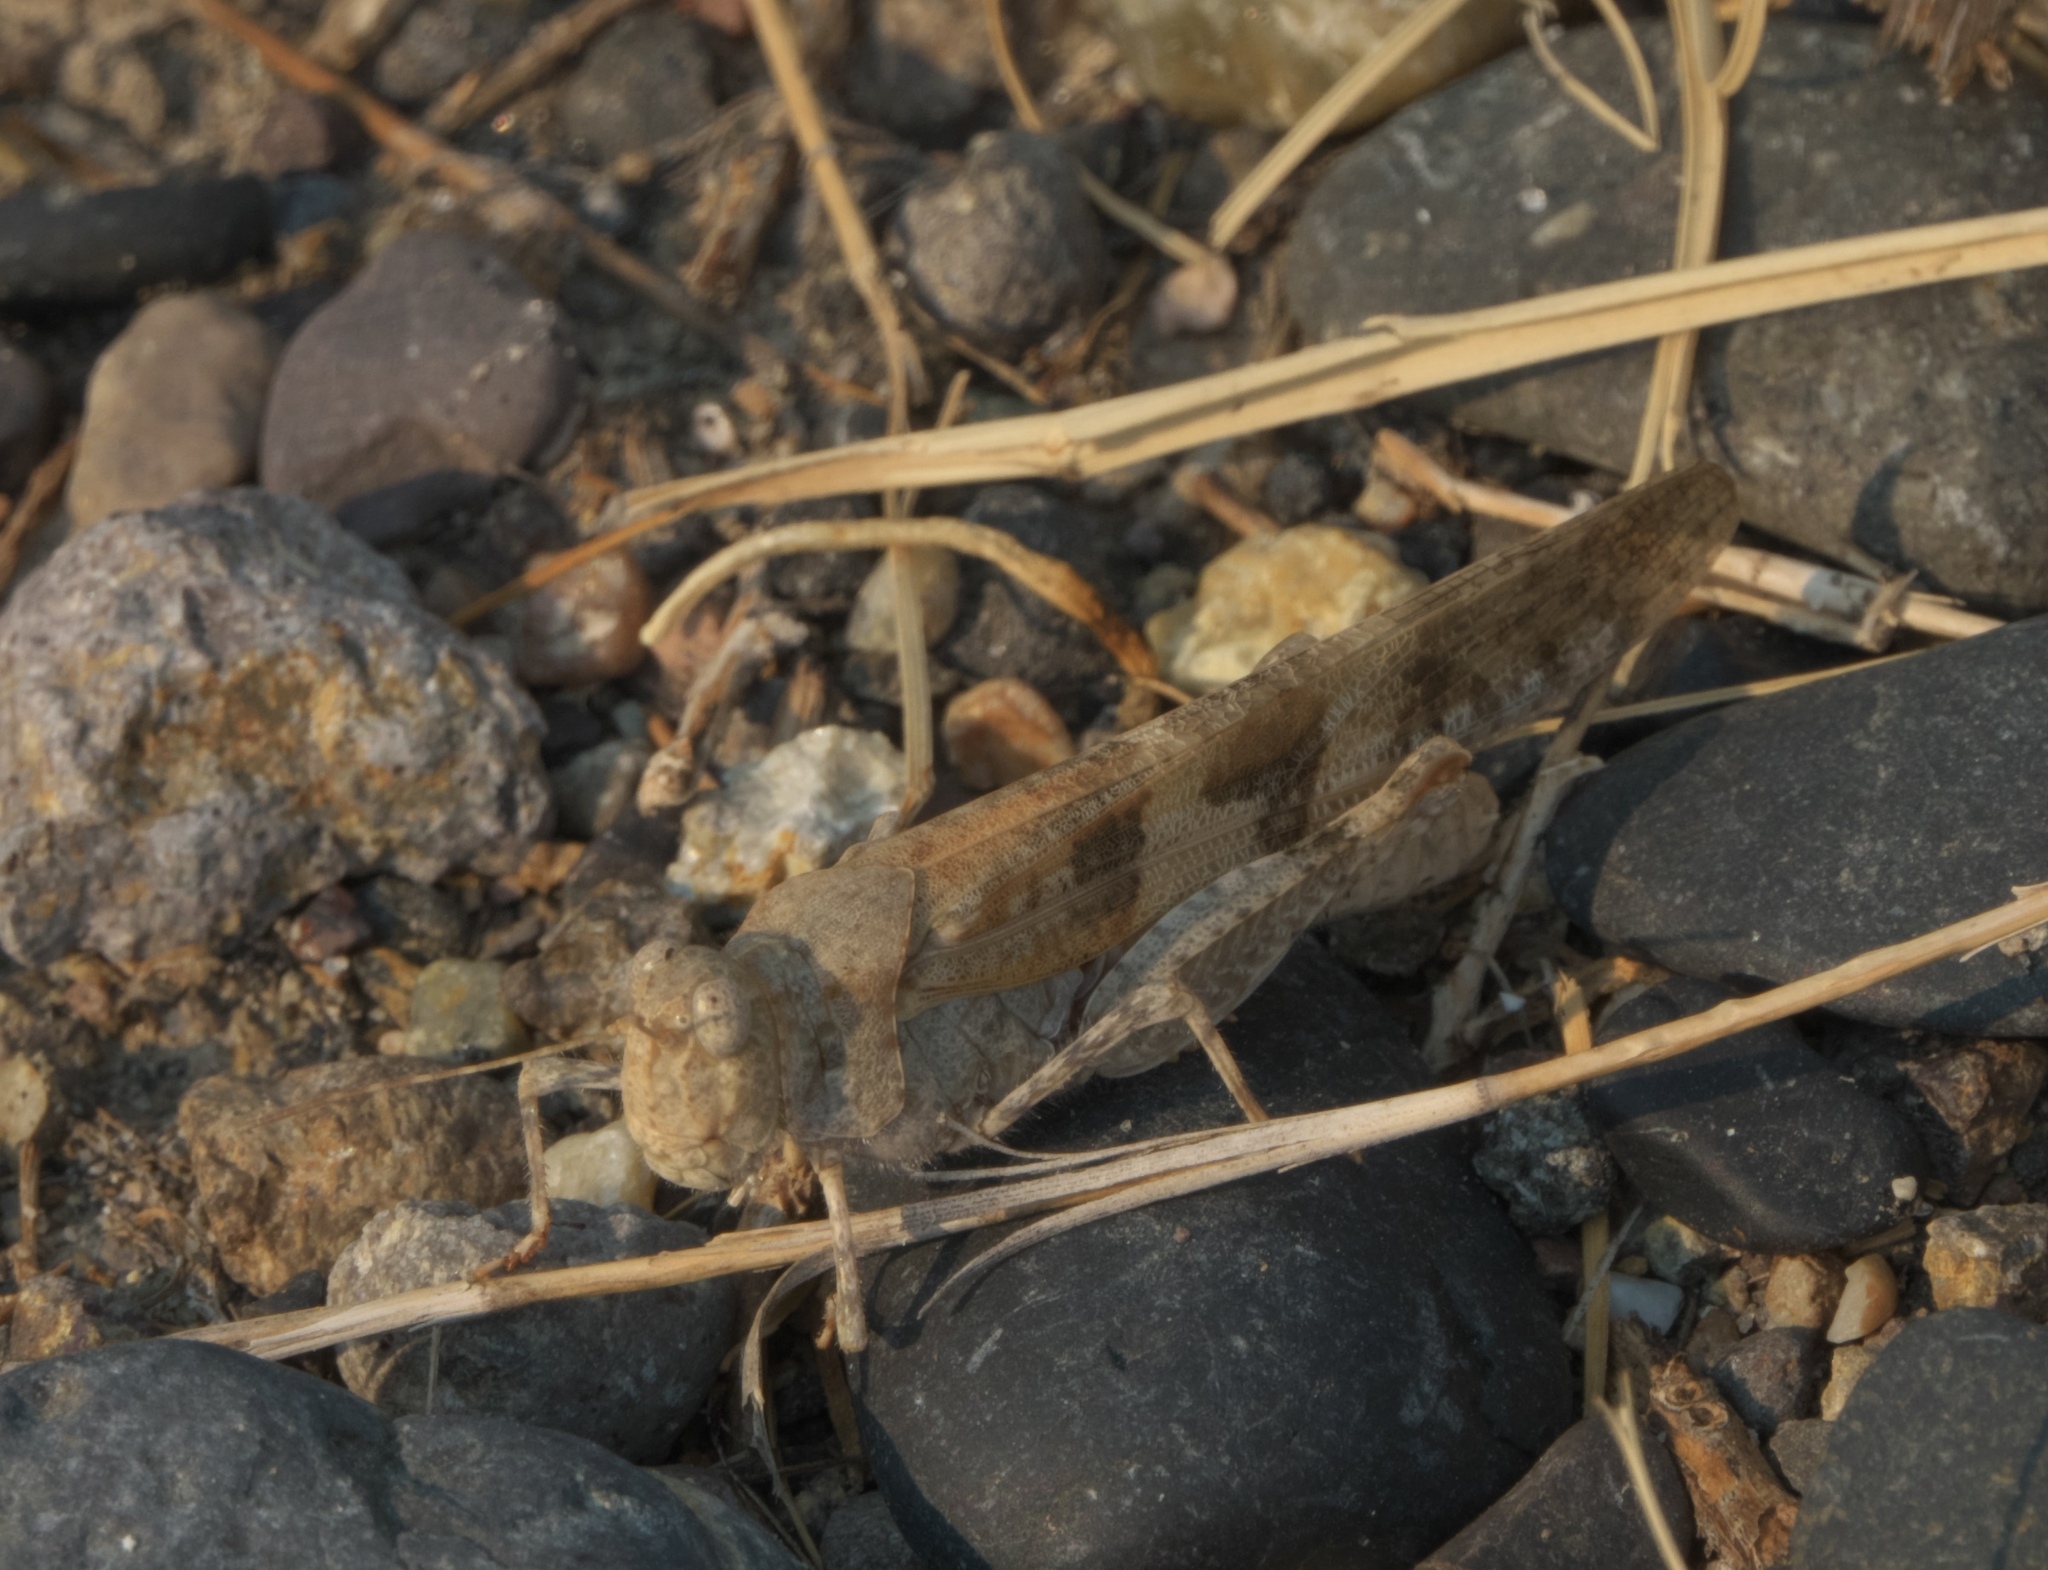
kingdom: Animalia
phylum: Arthropoda
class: Insecta
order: Orthoptera
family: Acrididae
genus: Trimerotropis
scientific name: Trimerotropis pallidipennis
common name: Pallid-winged grasshopper
